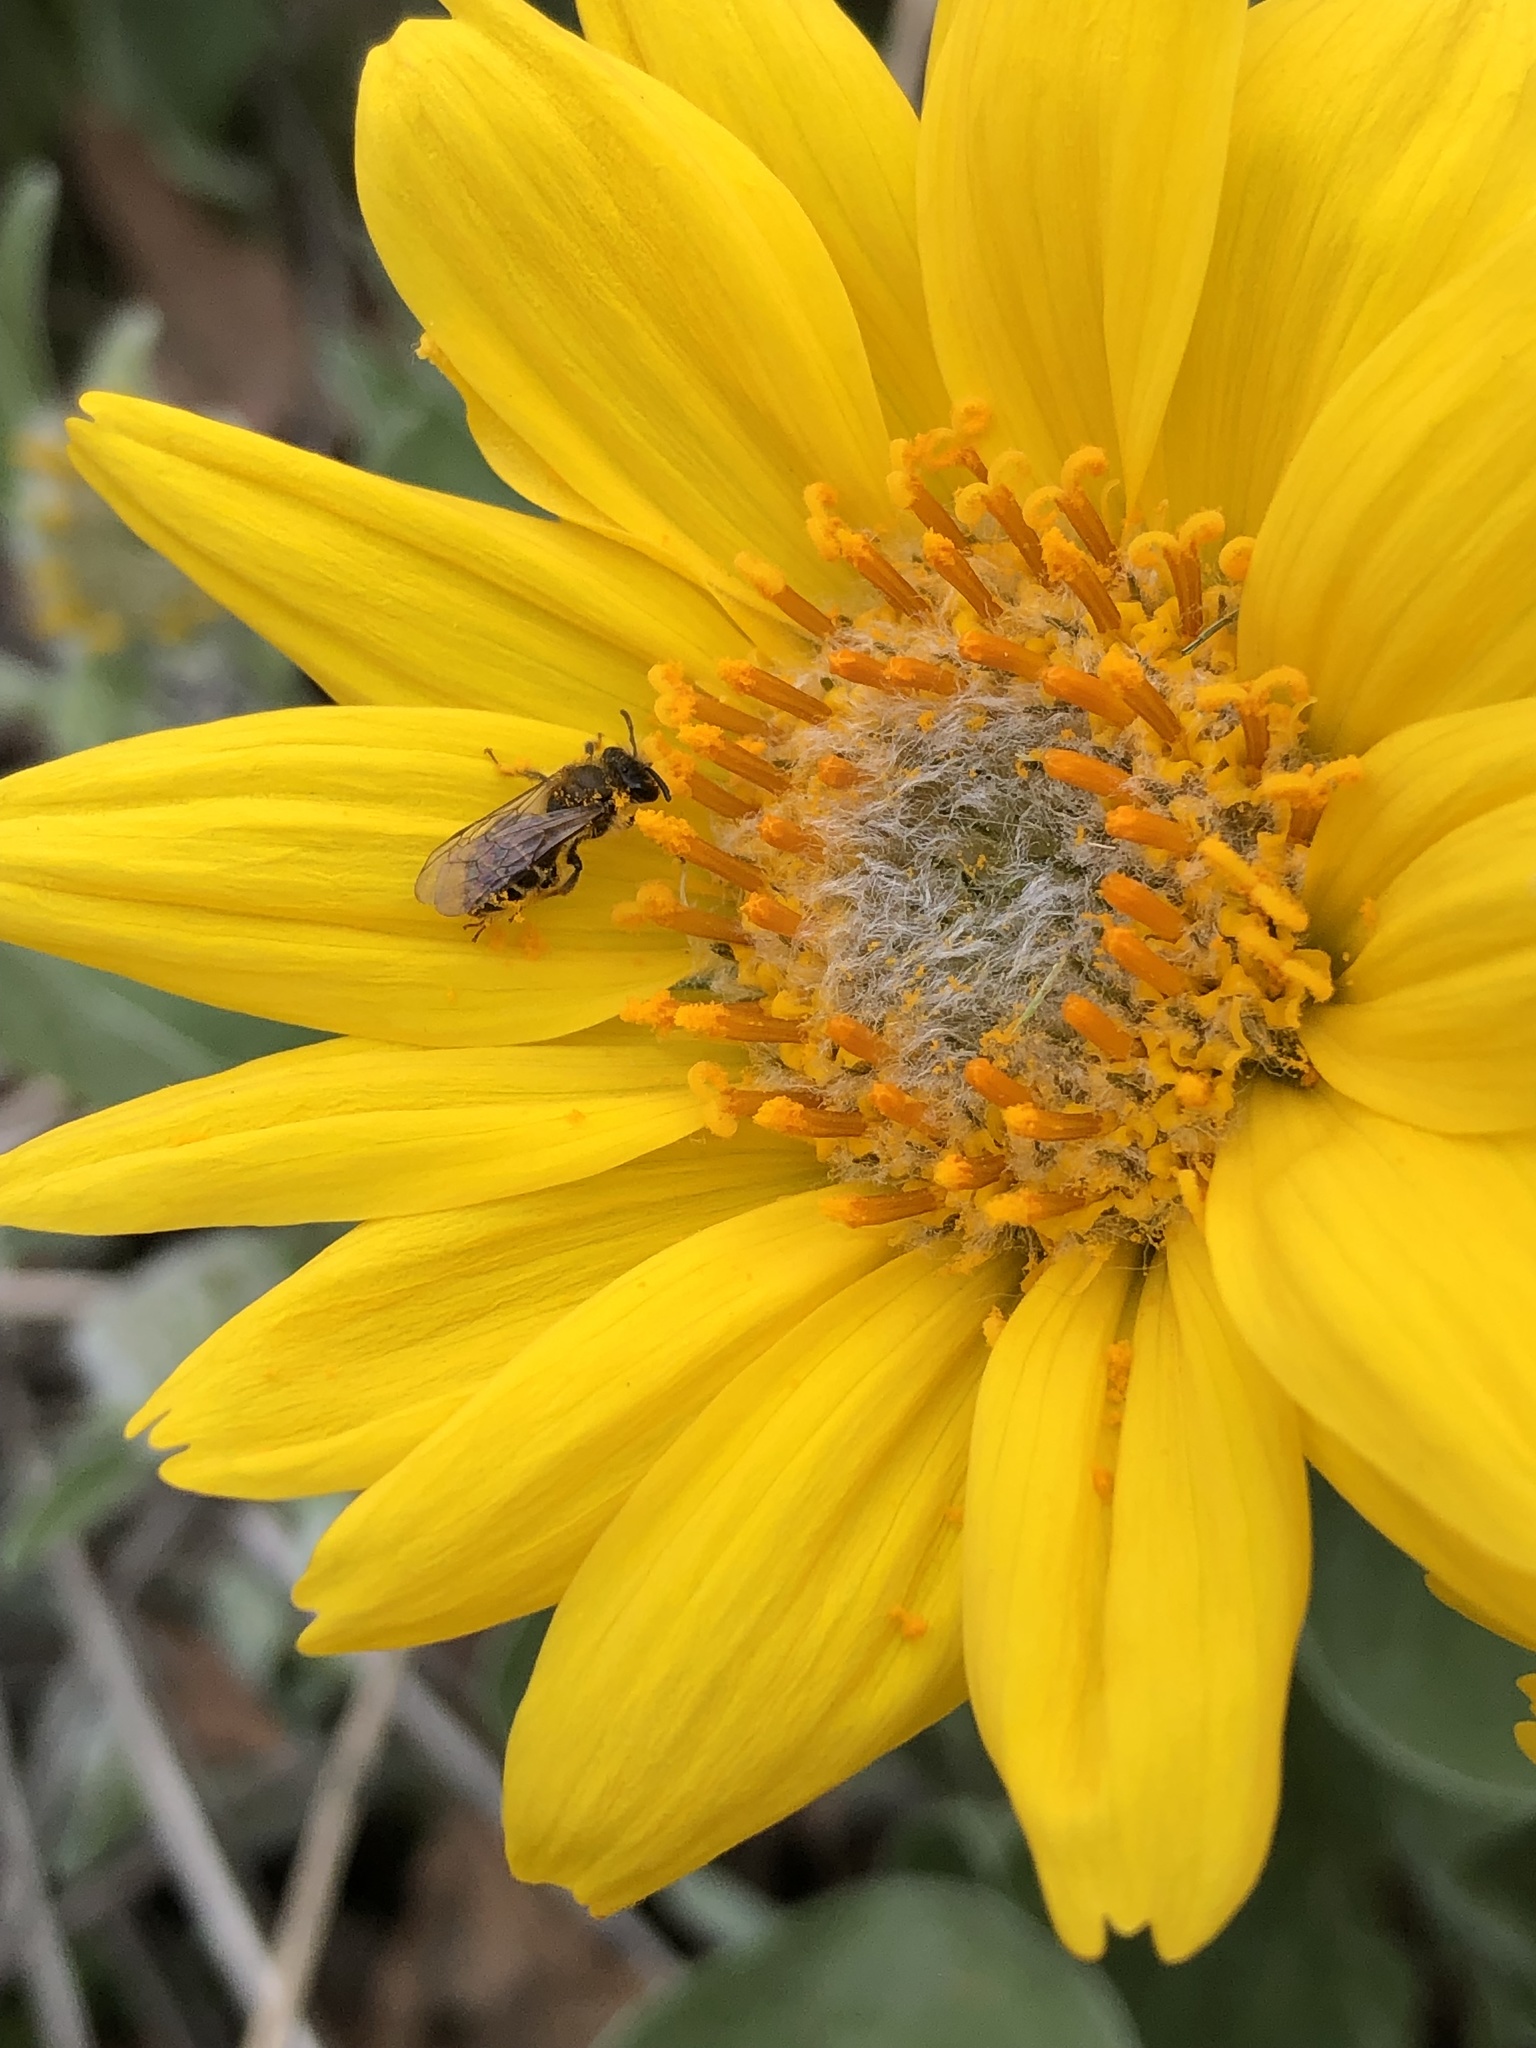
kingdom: Plantae
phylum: Tracheophyta
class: Magnoliopsida
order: Asterales
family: Asteraceae
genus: Wyethia
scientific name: Wyethia sagittata
